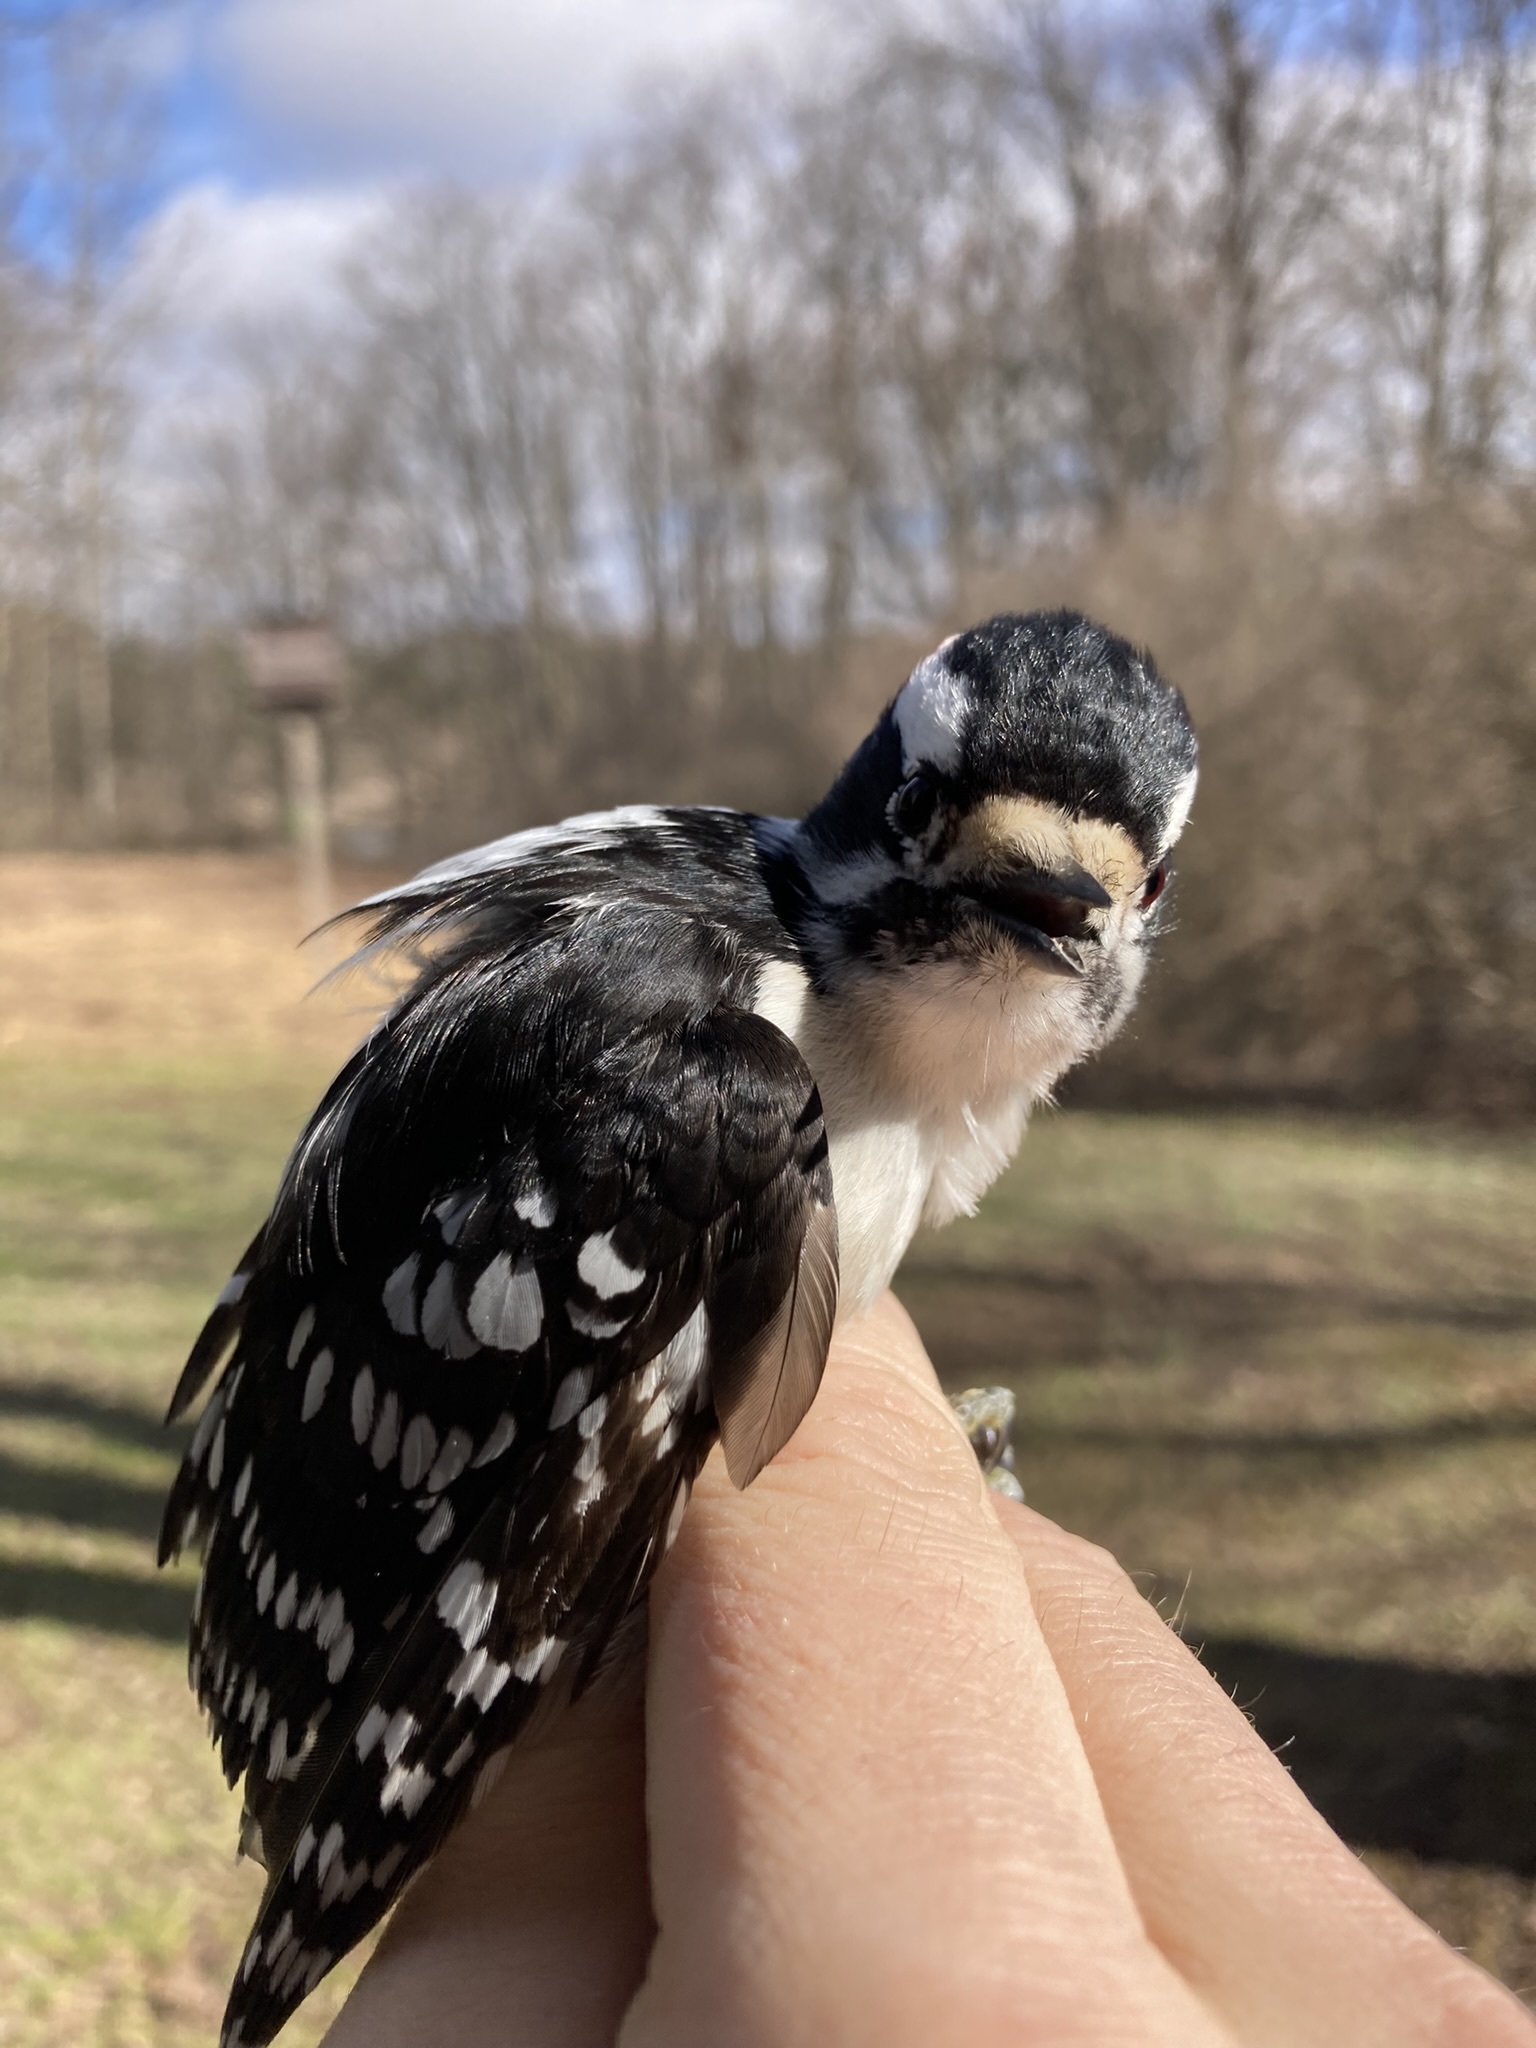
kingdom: Animalia
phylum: Chordata
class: Aves
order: Piciformes
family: Picidae
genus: Dryobates
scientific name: Dryobates pubescens
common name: Downy woodpecker
